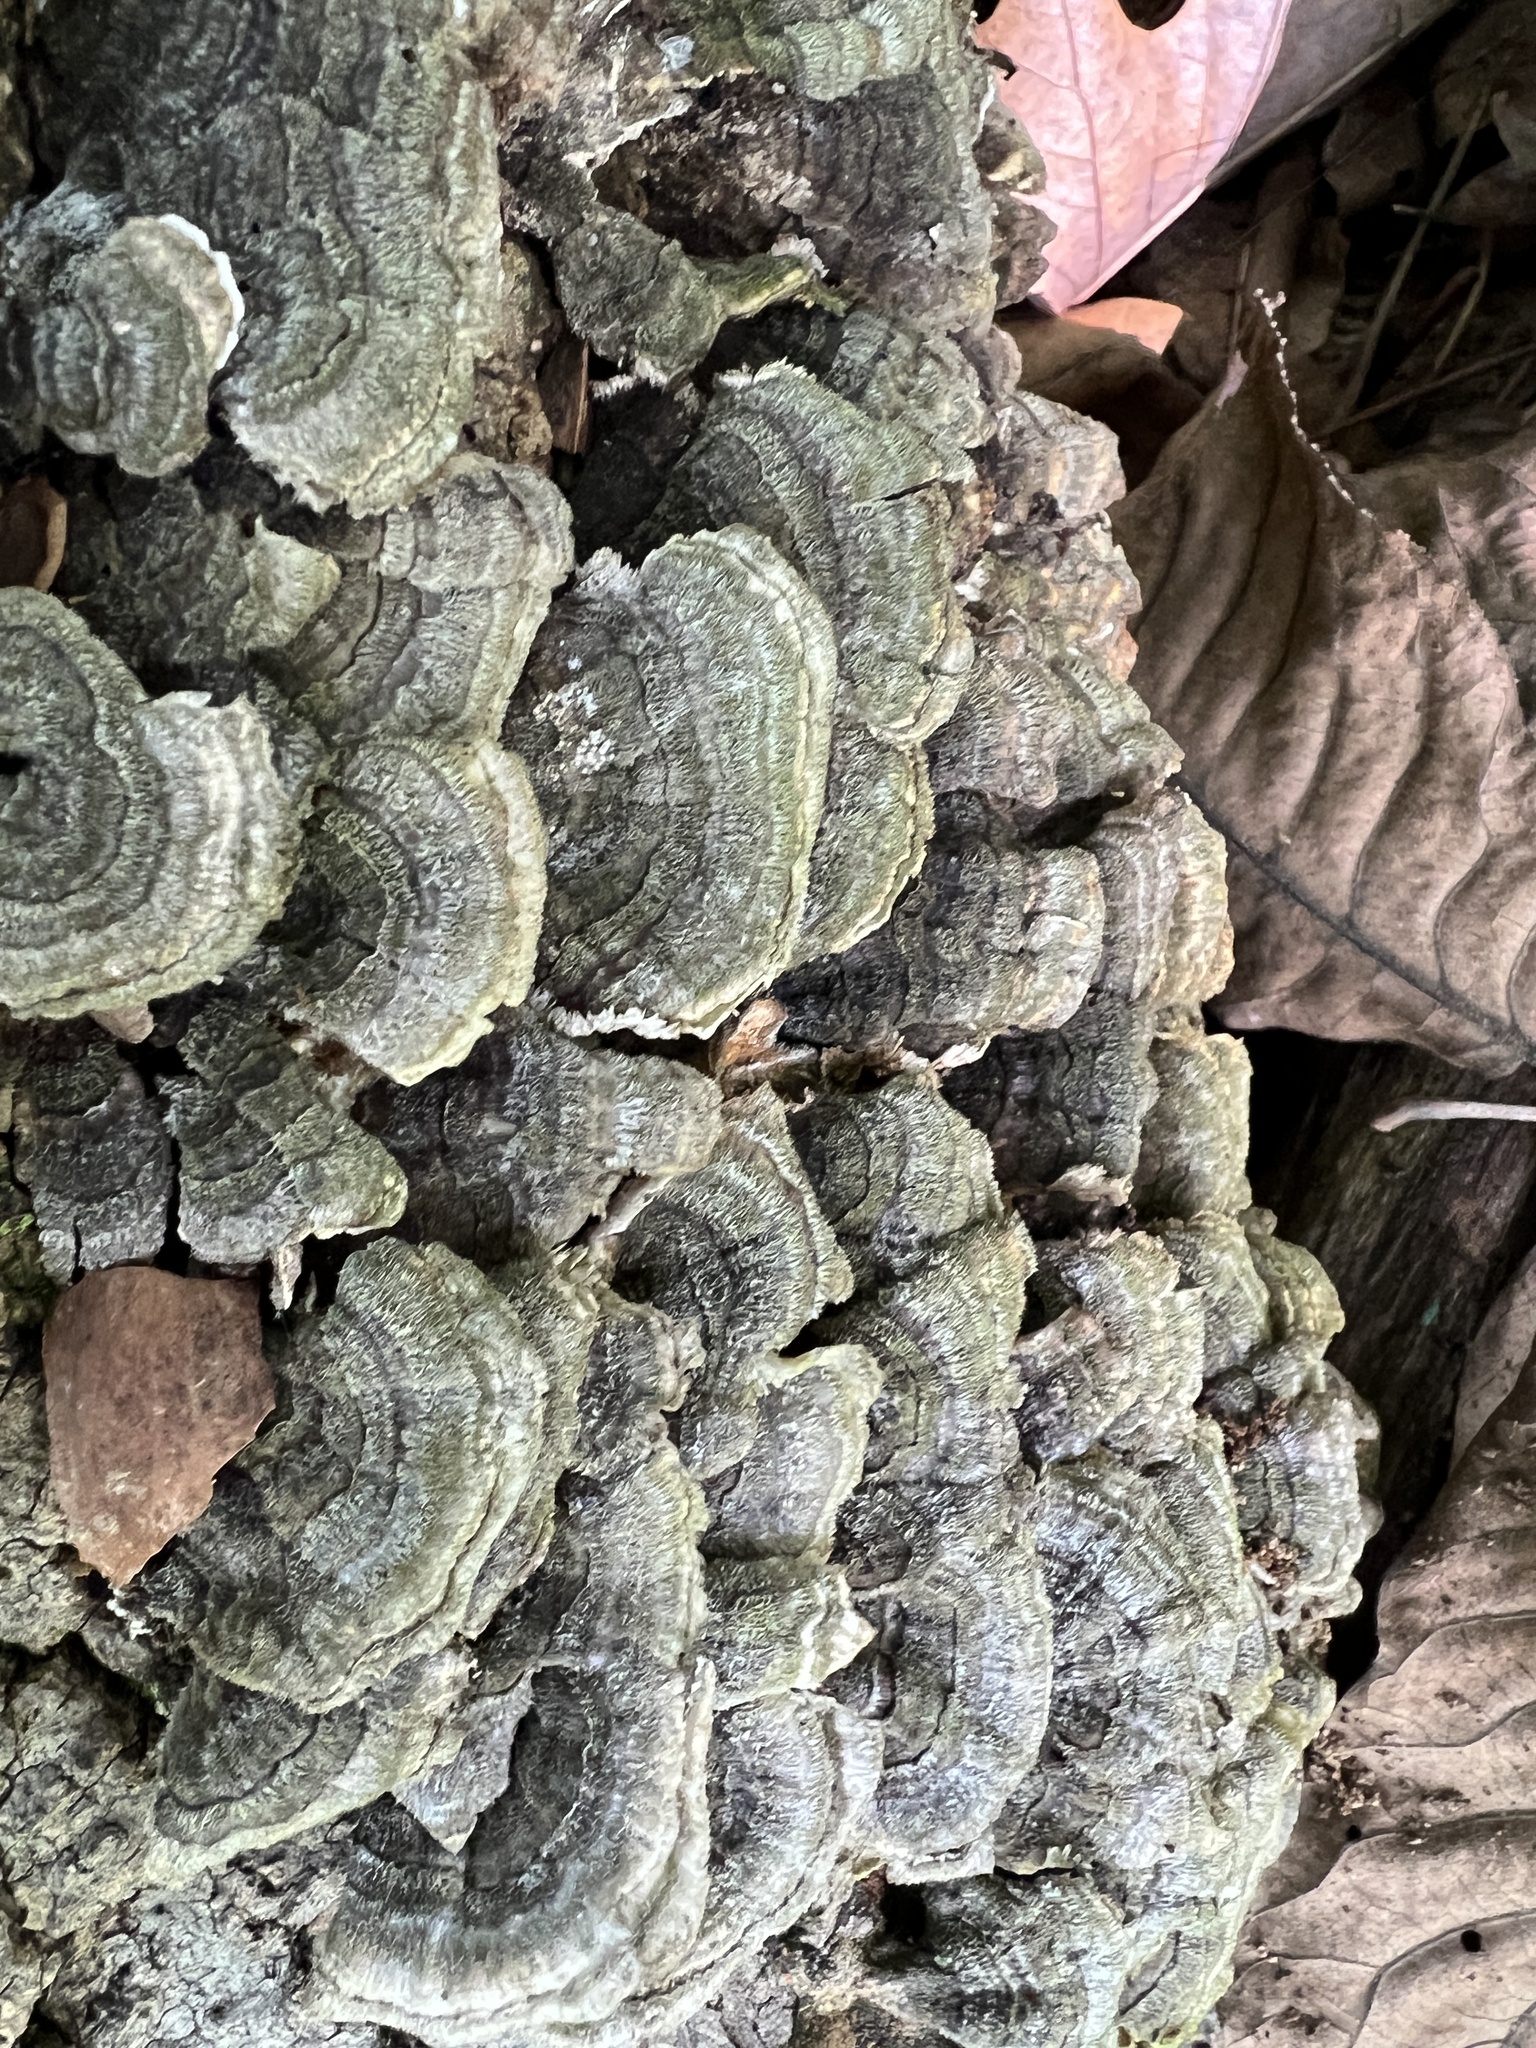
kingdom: Fungi
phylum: Basidiomycota
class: Agaricomycetes
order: Polyporales
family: Polyporaceae
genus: Trametes
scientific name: Trametes versicolor
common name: Turkeytail
